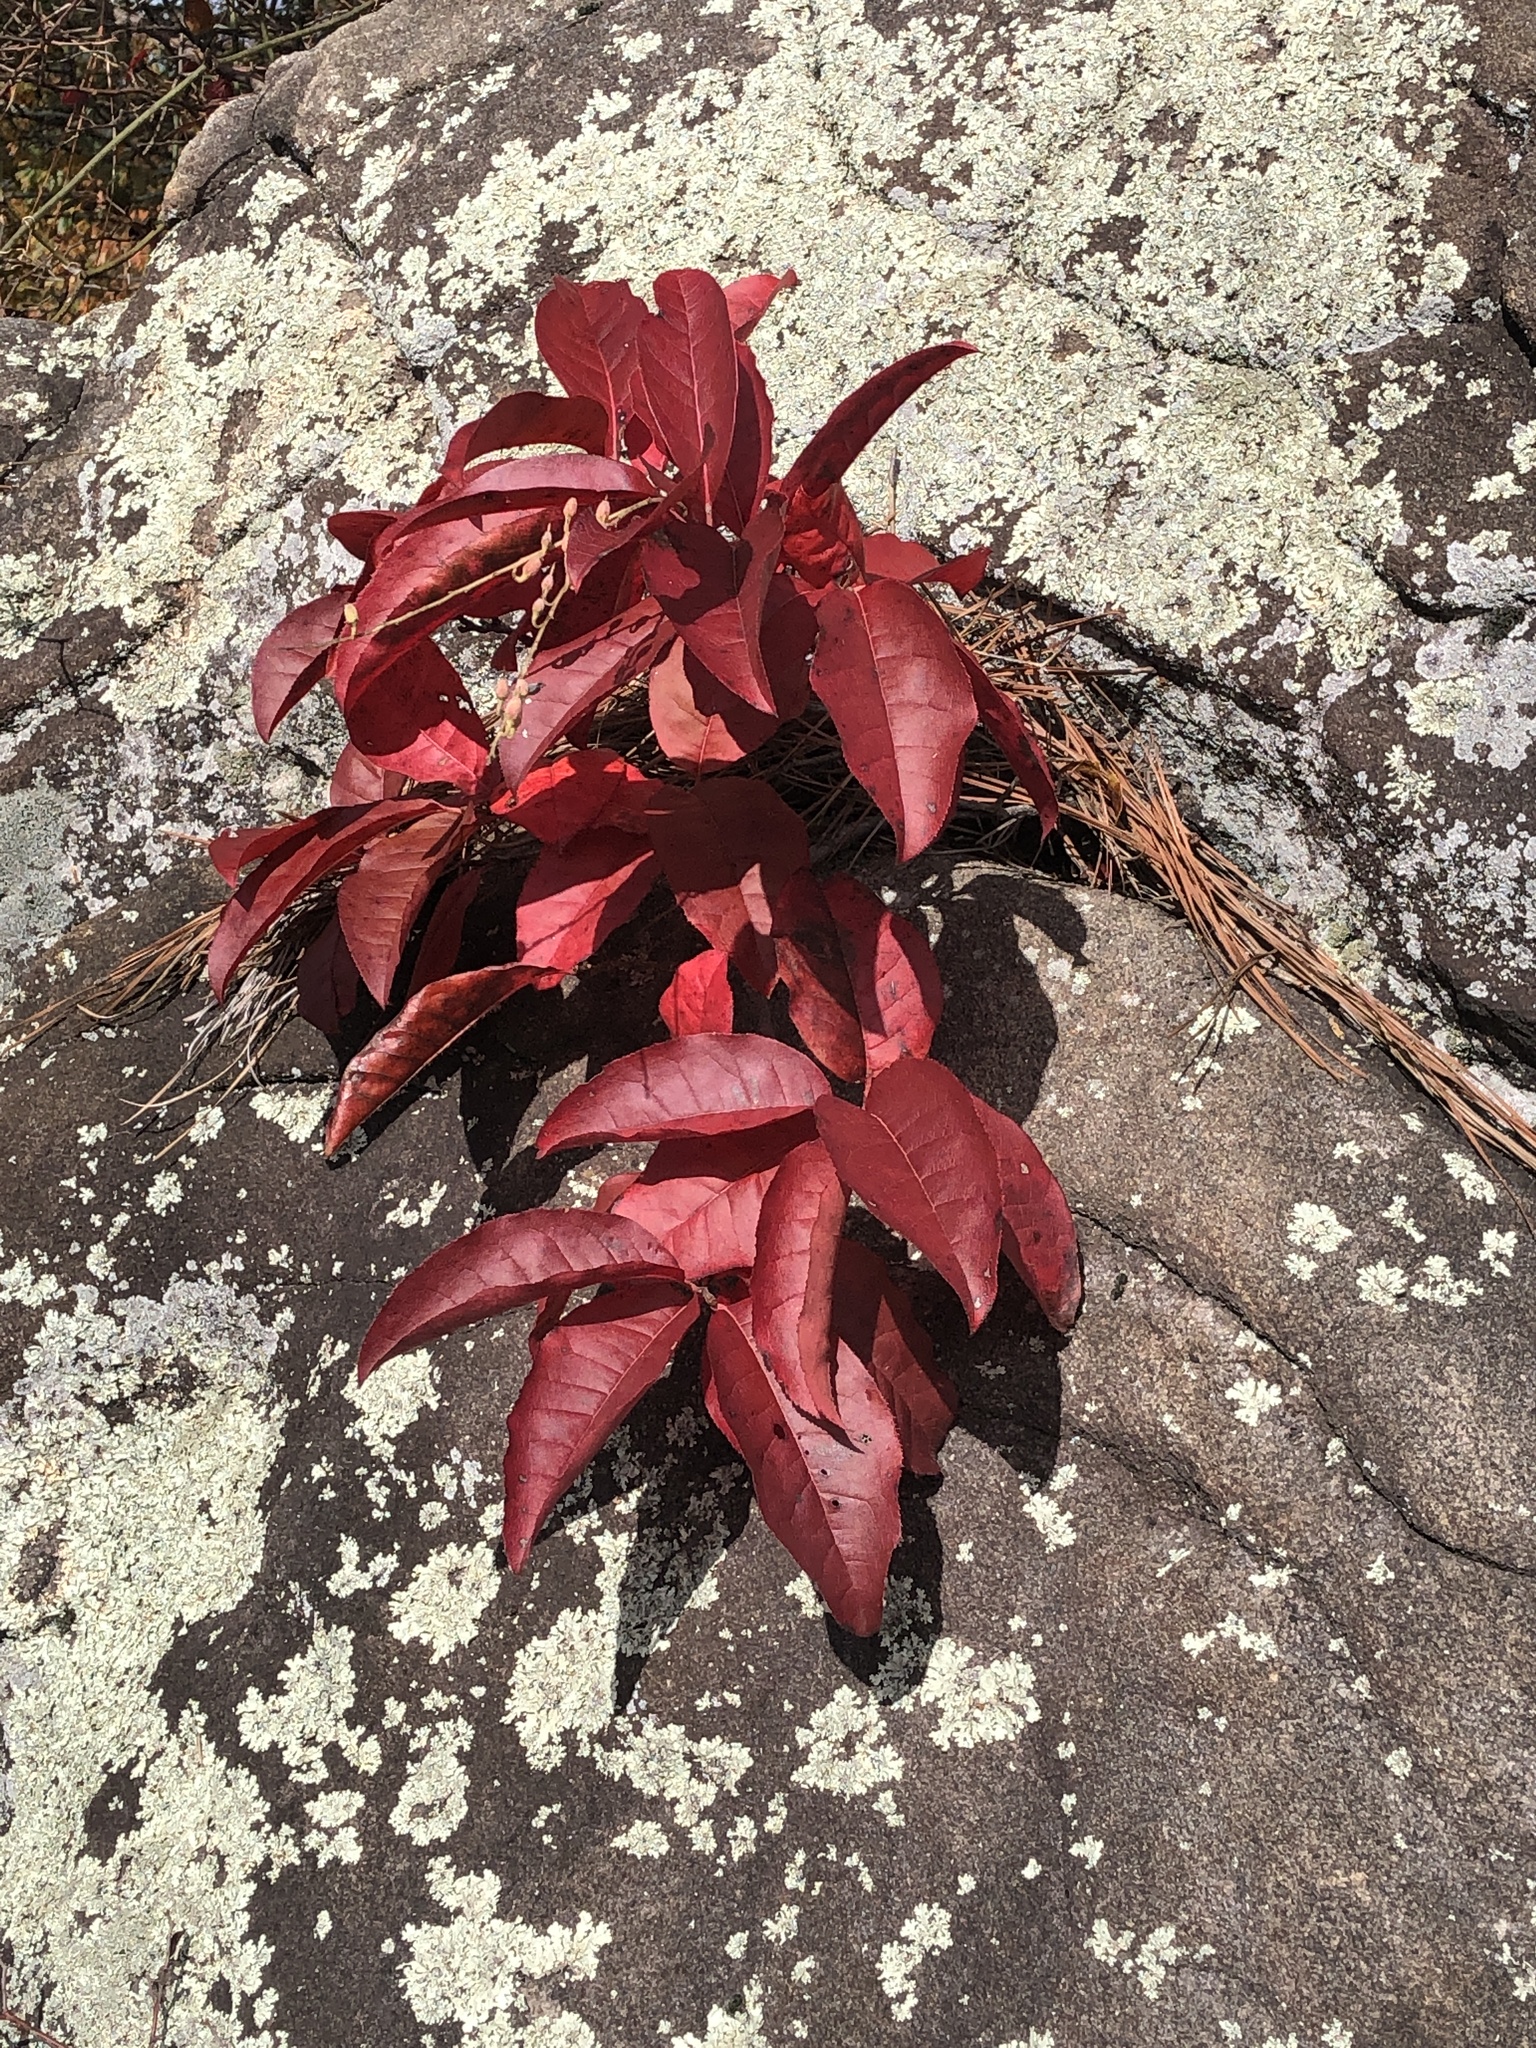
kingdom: Plantae
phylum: Tracheophyta
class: Magnoliopsida
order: Ericales
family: Ericaceae
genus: Oxydendrum
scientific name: Oxydendrum arboreum
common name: Sourwood
